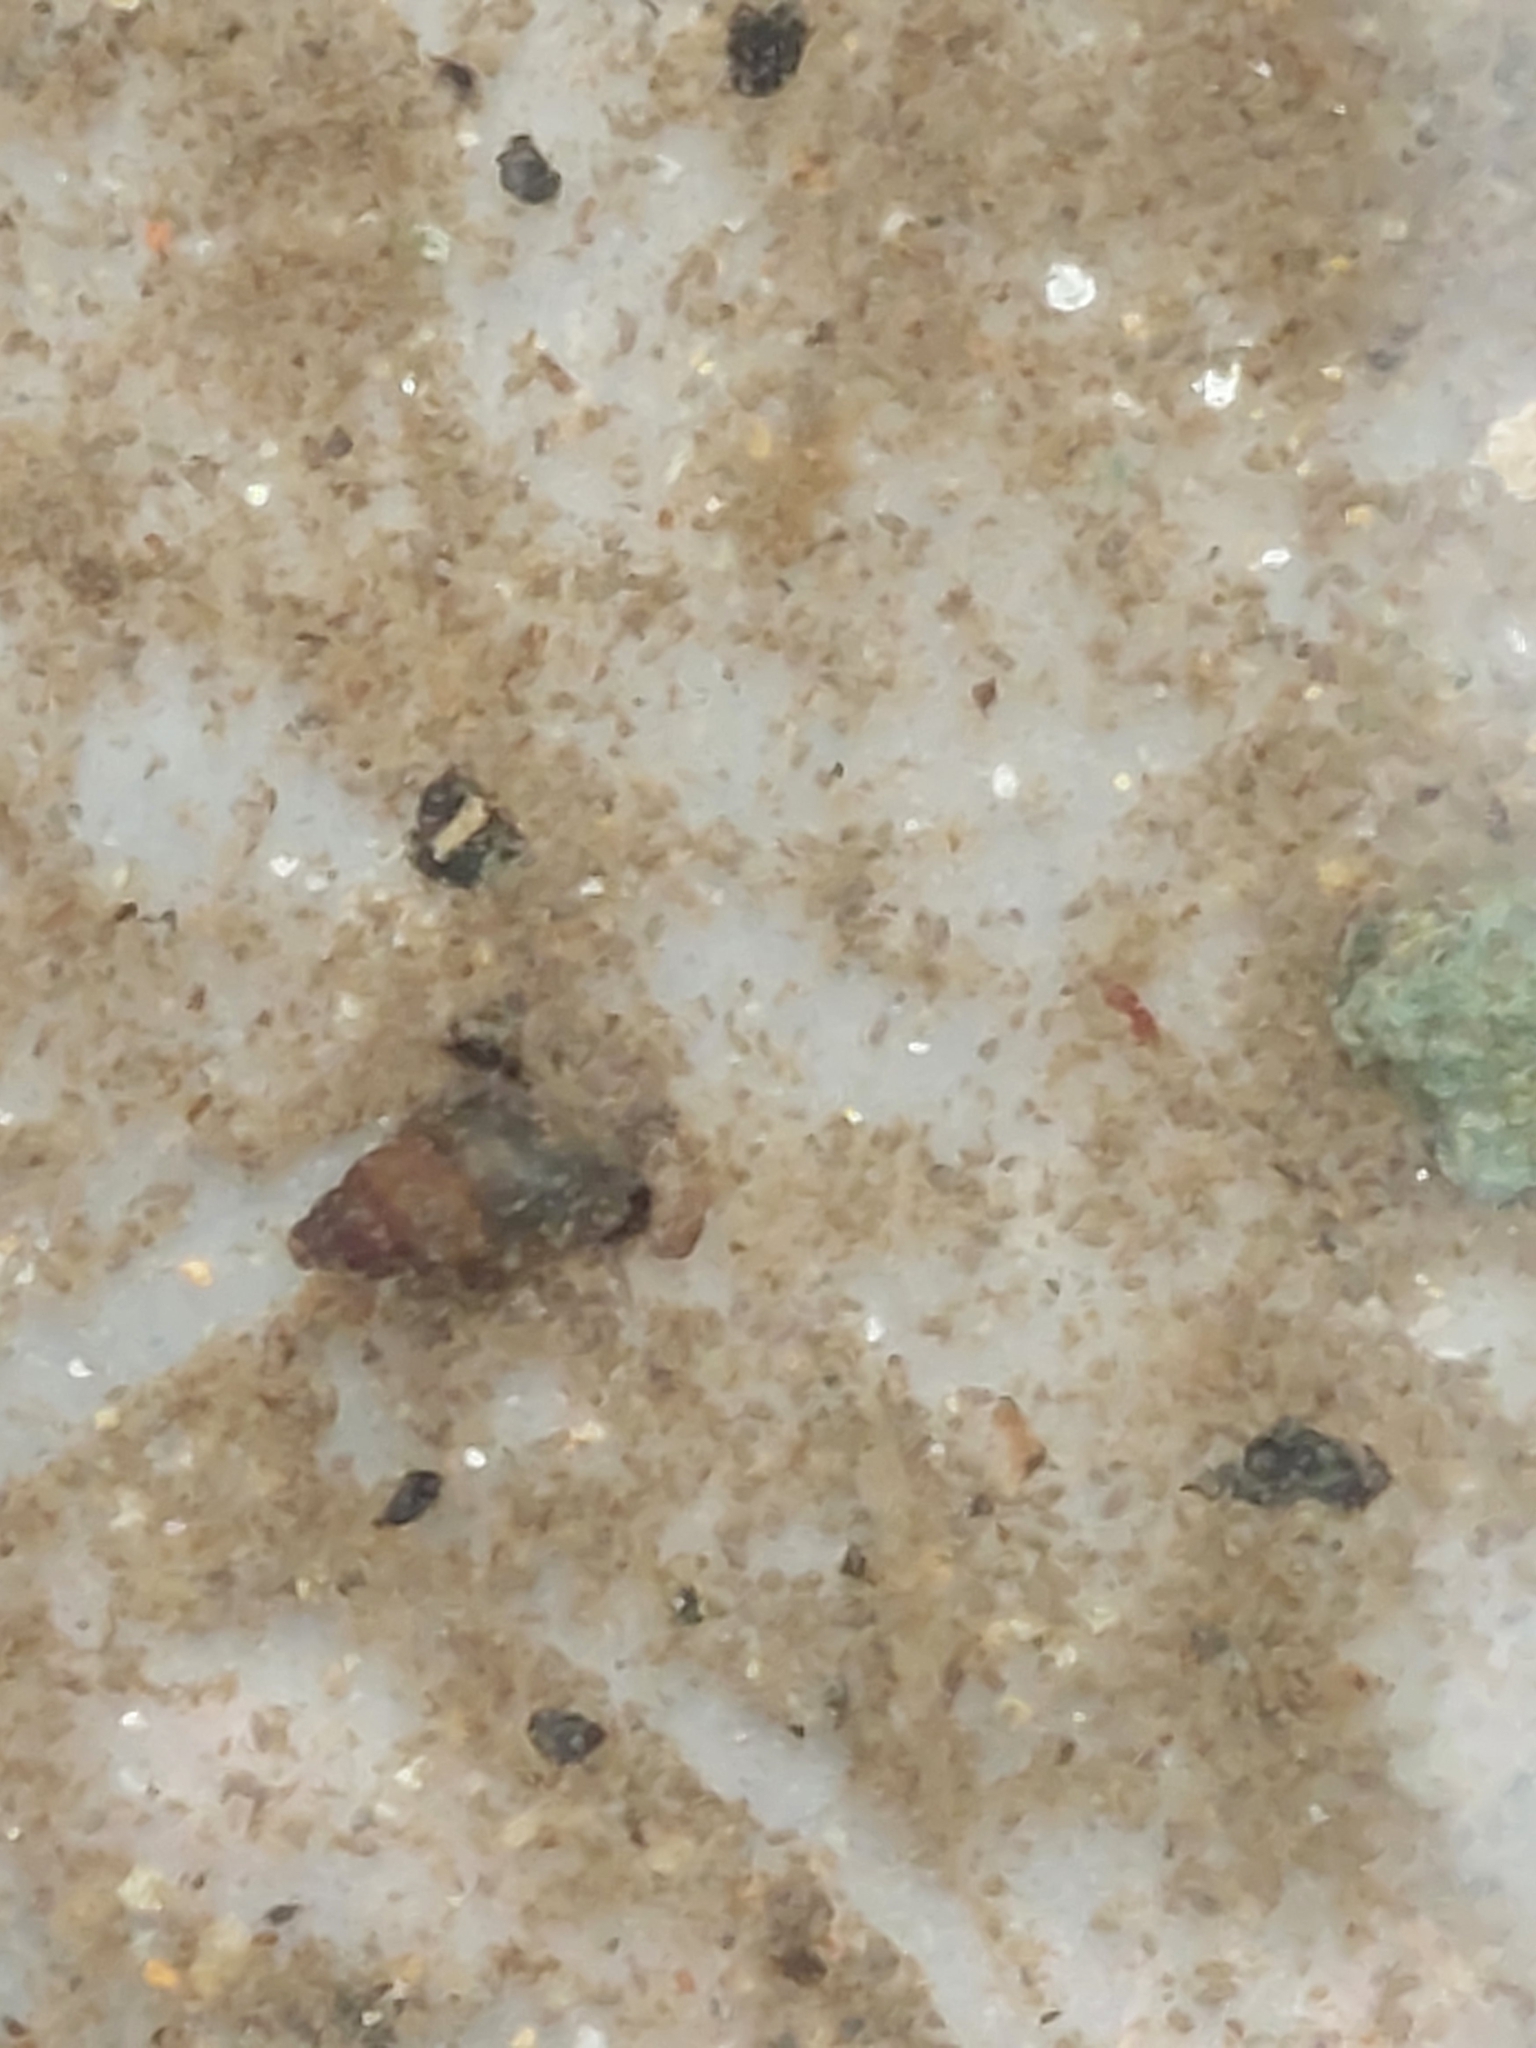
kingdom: Animalia
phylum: Mollusca
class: Gastropoda
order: Littorinimorpha
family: Tateidae
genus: Potamopyrgus
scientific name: Potamopyrgus antipodarum
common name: Jenkins' spire snail
